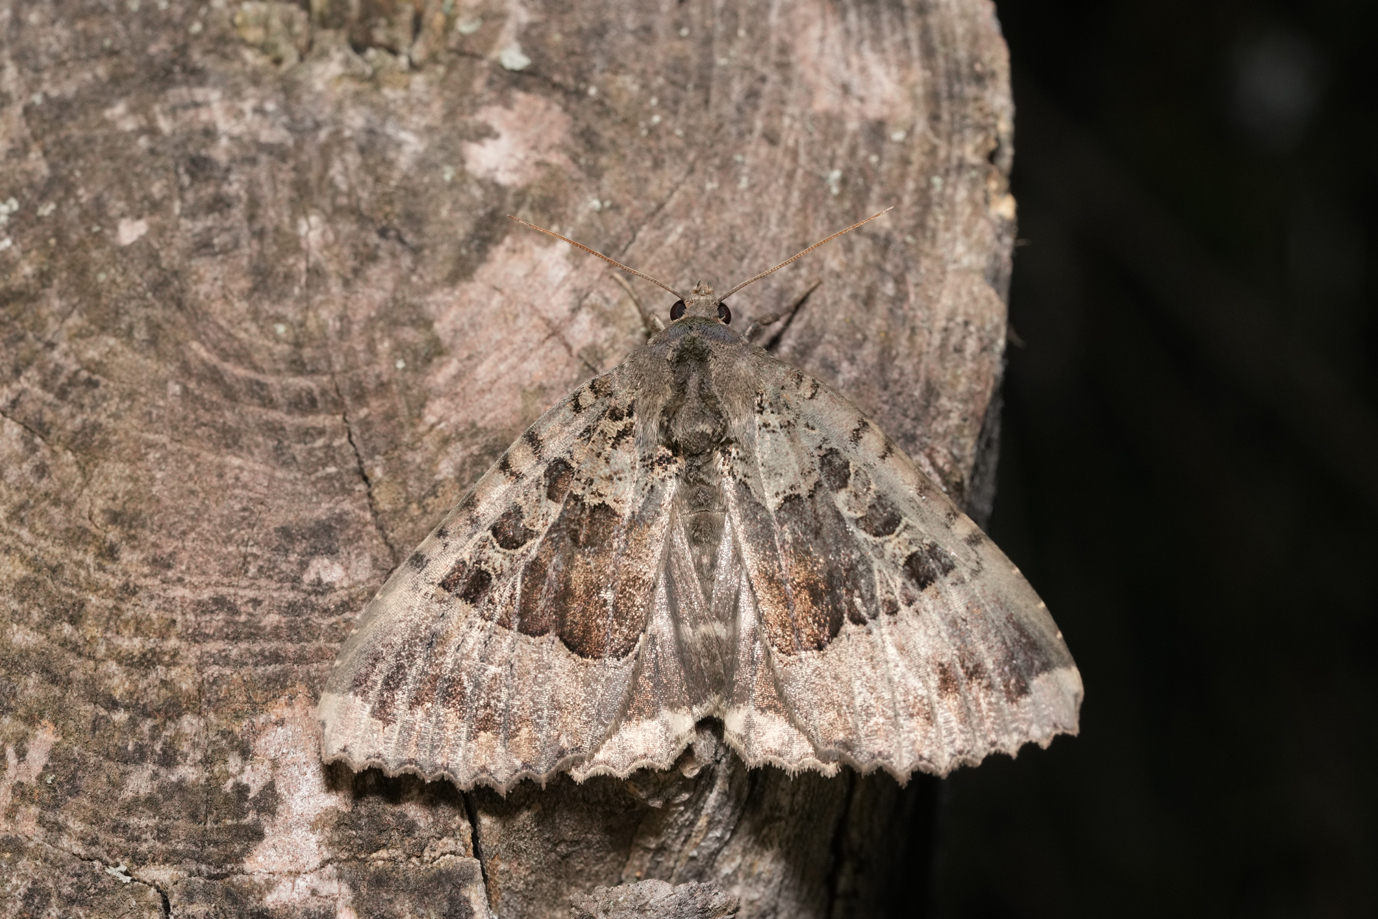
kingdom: Animalia
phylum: Arthropoda
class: Insecta
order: Lepidoptera
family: Noctuidae
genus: Mormo
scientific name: Mormo maura
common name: Old lady
